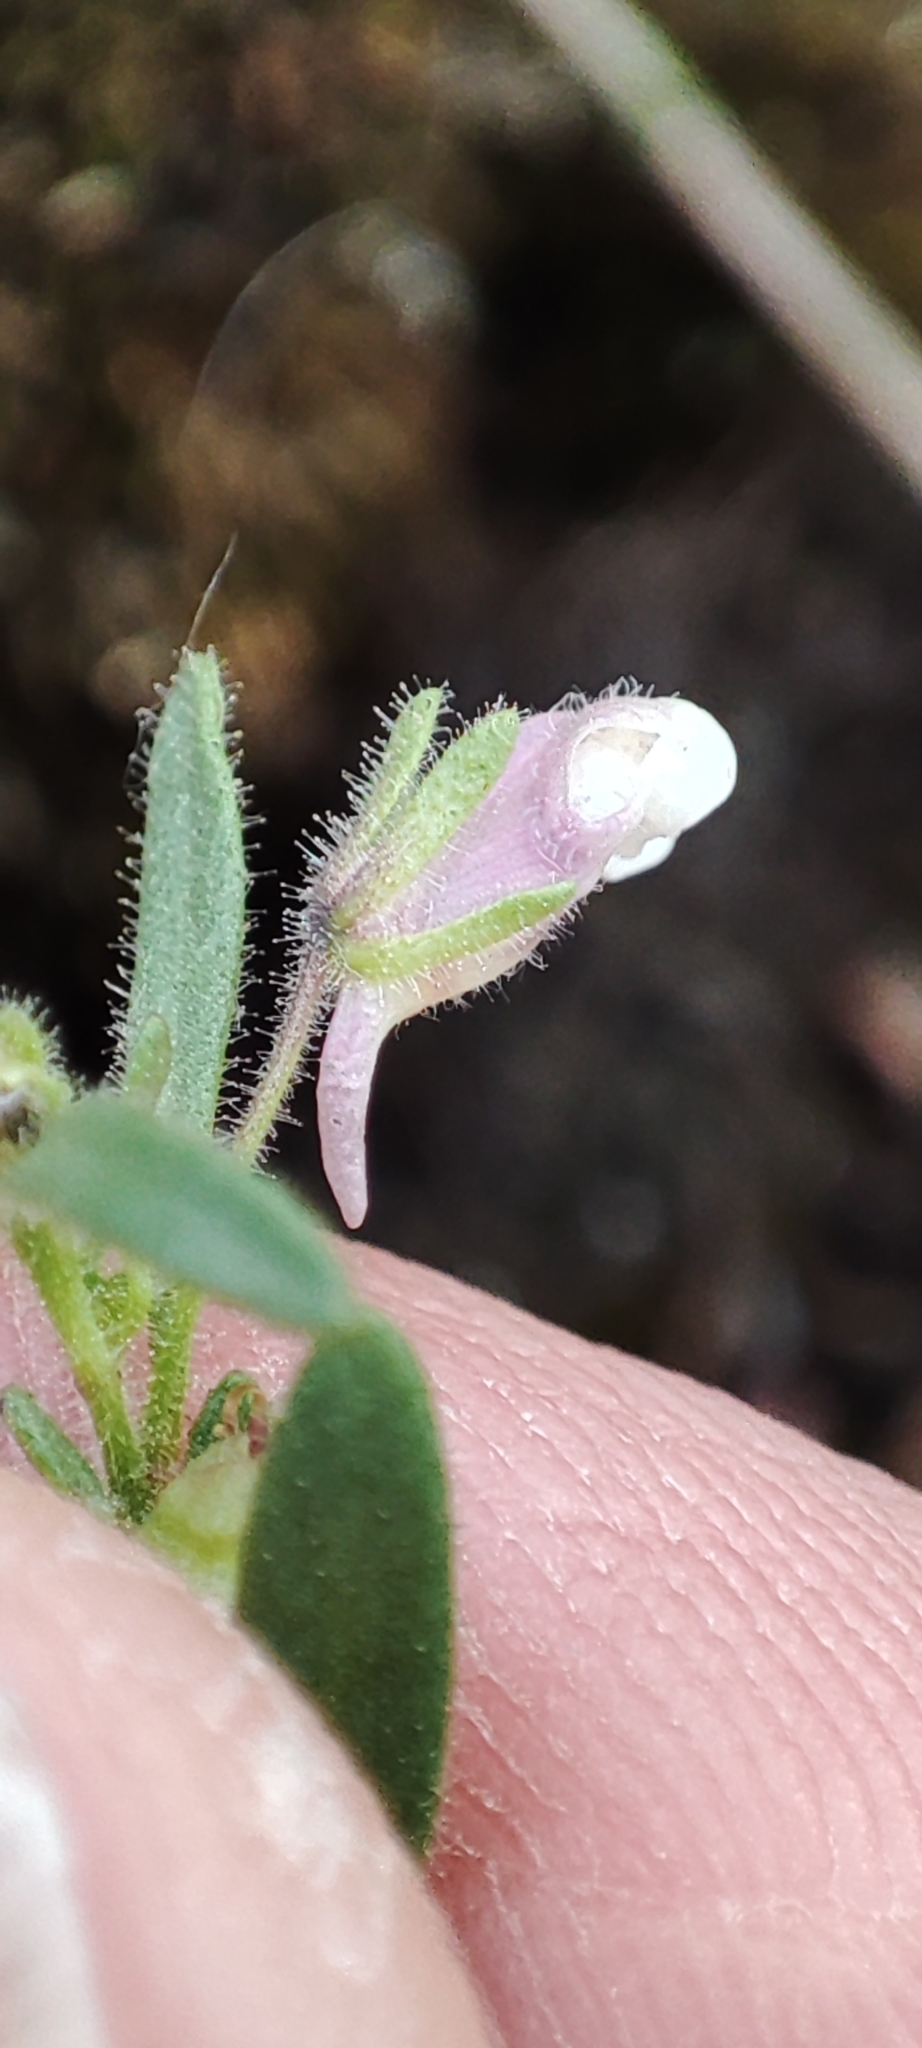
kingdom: Plantae
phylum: Tracheophyta
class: Magnoliopsida
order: Lamiales
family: Plantaginaceae
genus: Chaenorhinum
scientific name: Chaenorhinum minus
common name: Dwarf snapdragon
